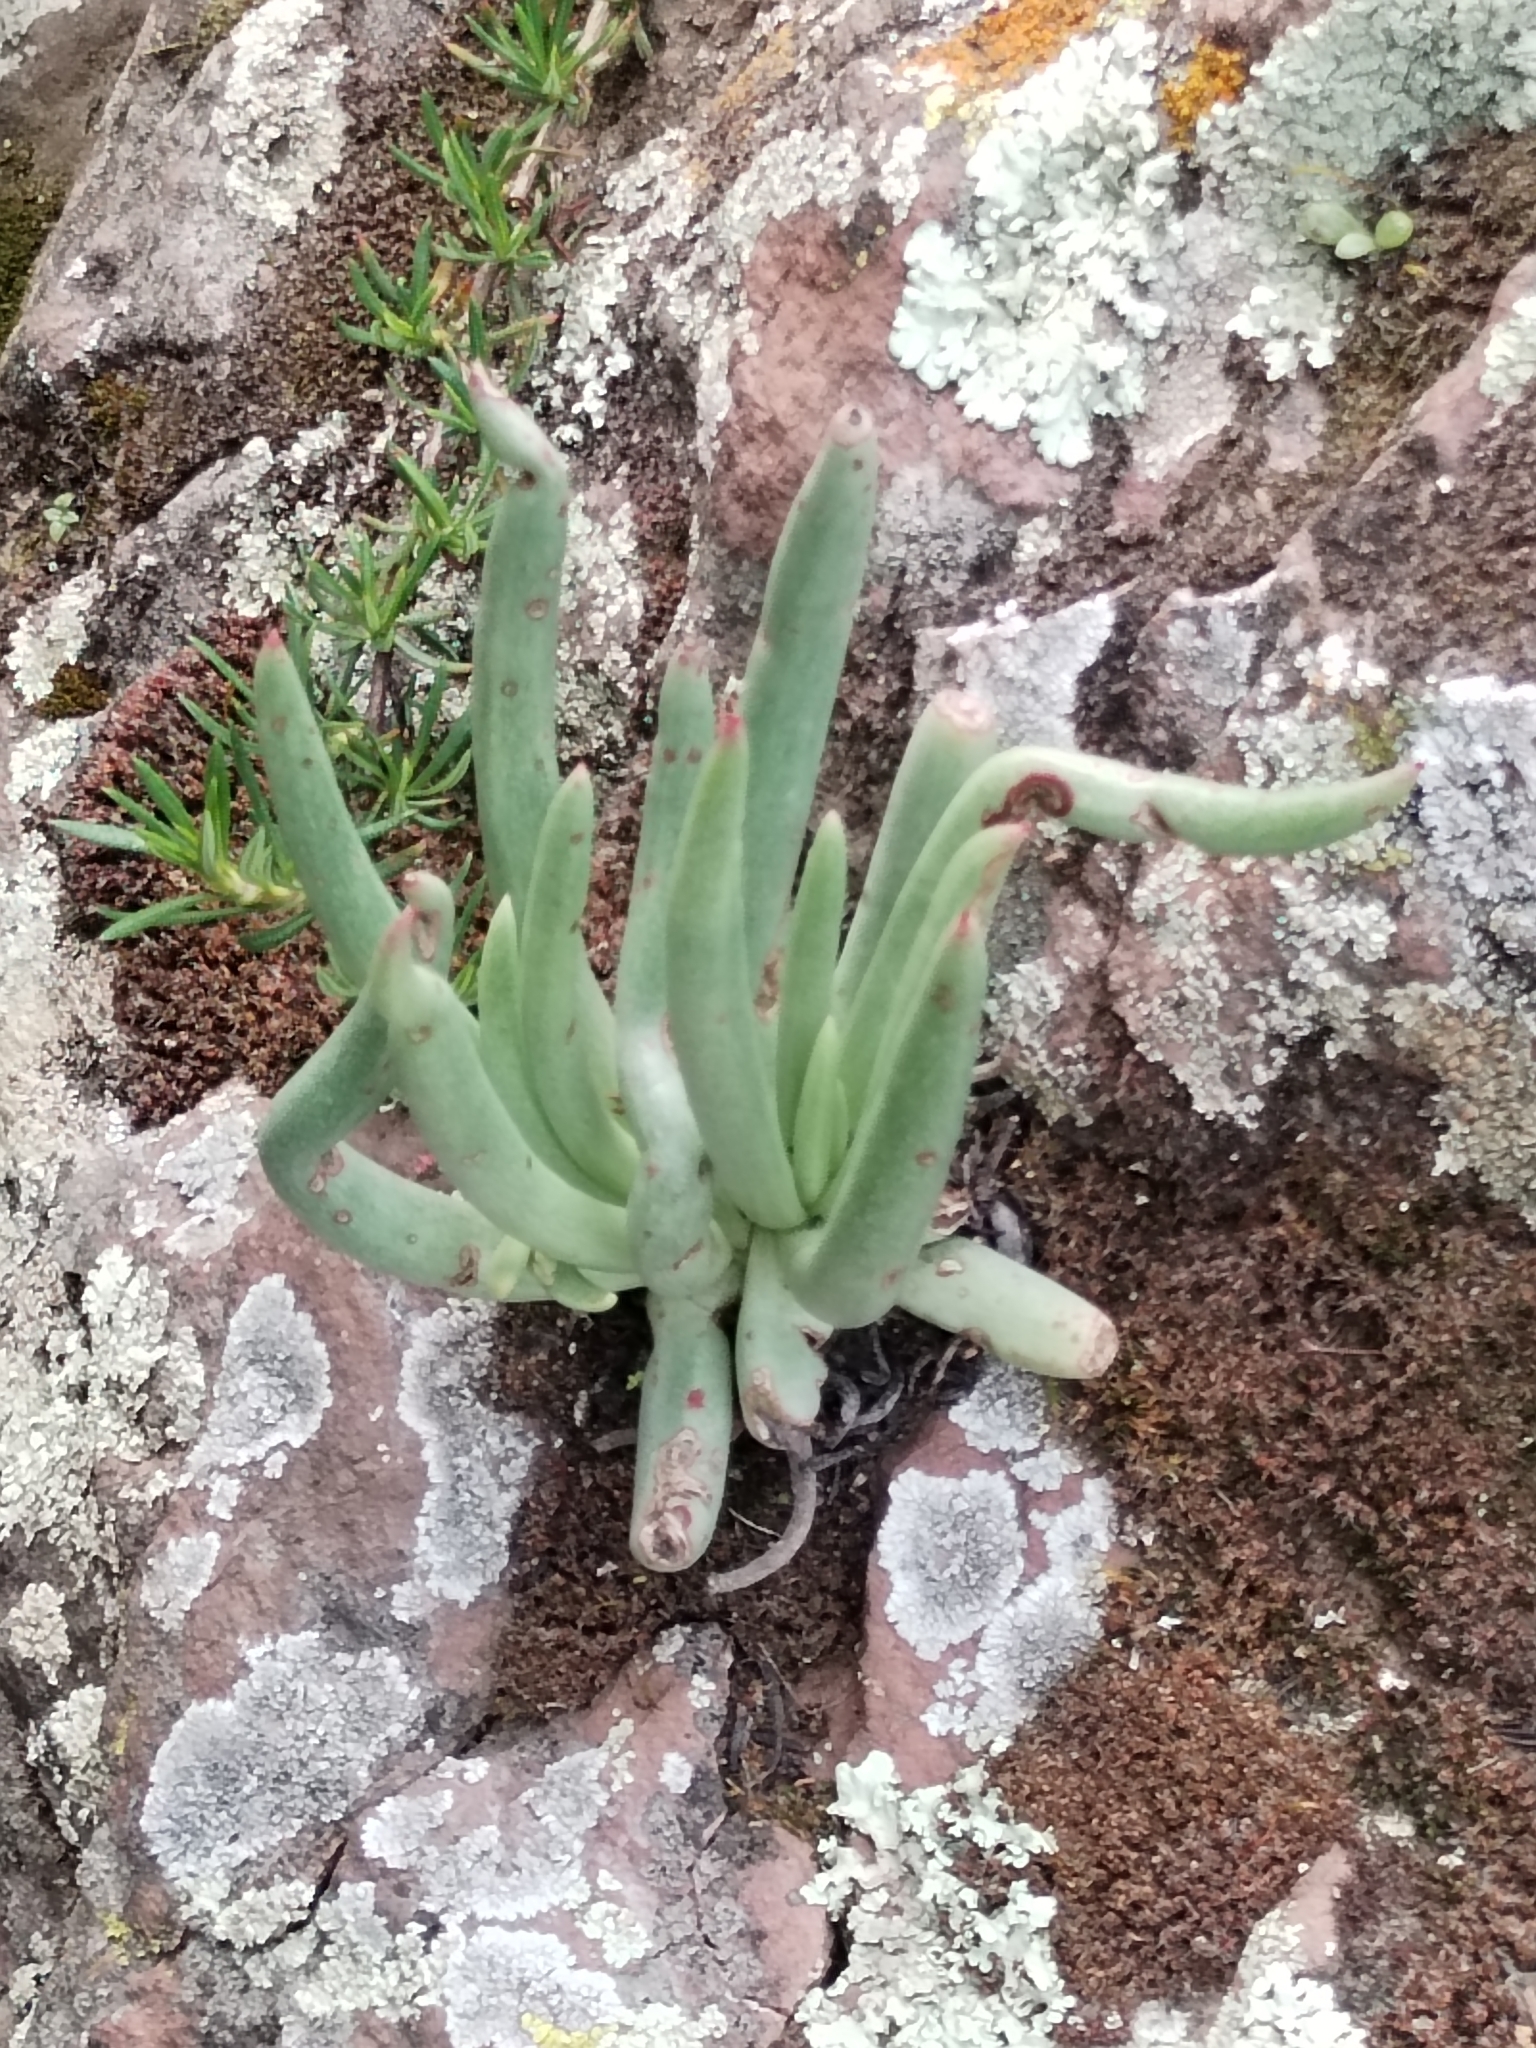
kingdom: Plantae
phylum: Tracheophyta
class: Magnoliopsida
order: Saxifragales
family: Crassulaceae
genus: Dudleya
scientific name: Dudleya edulis
